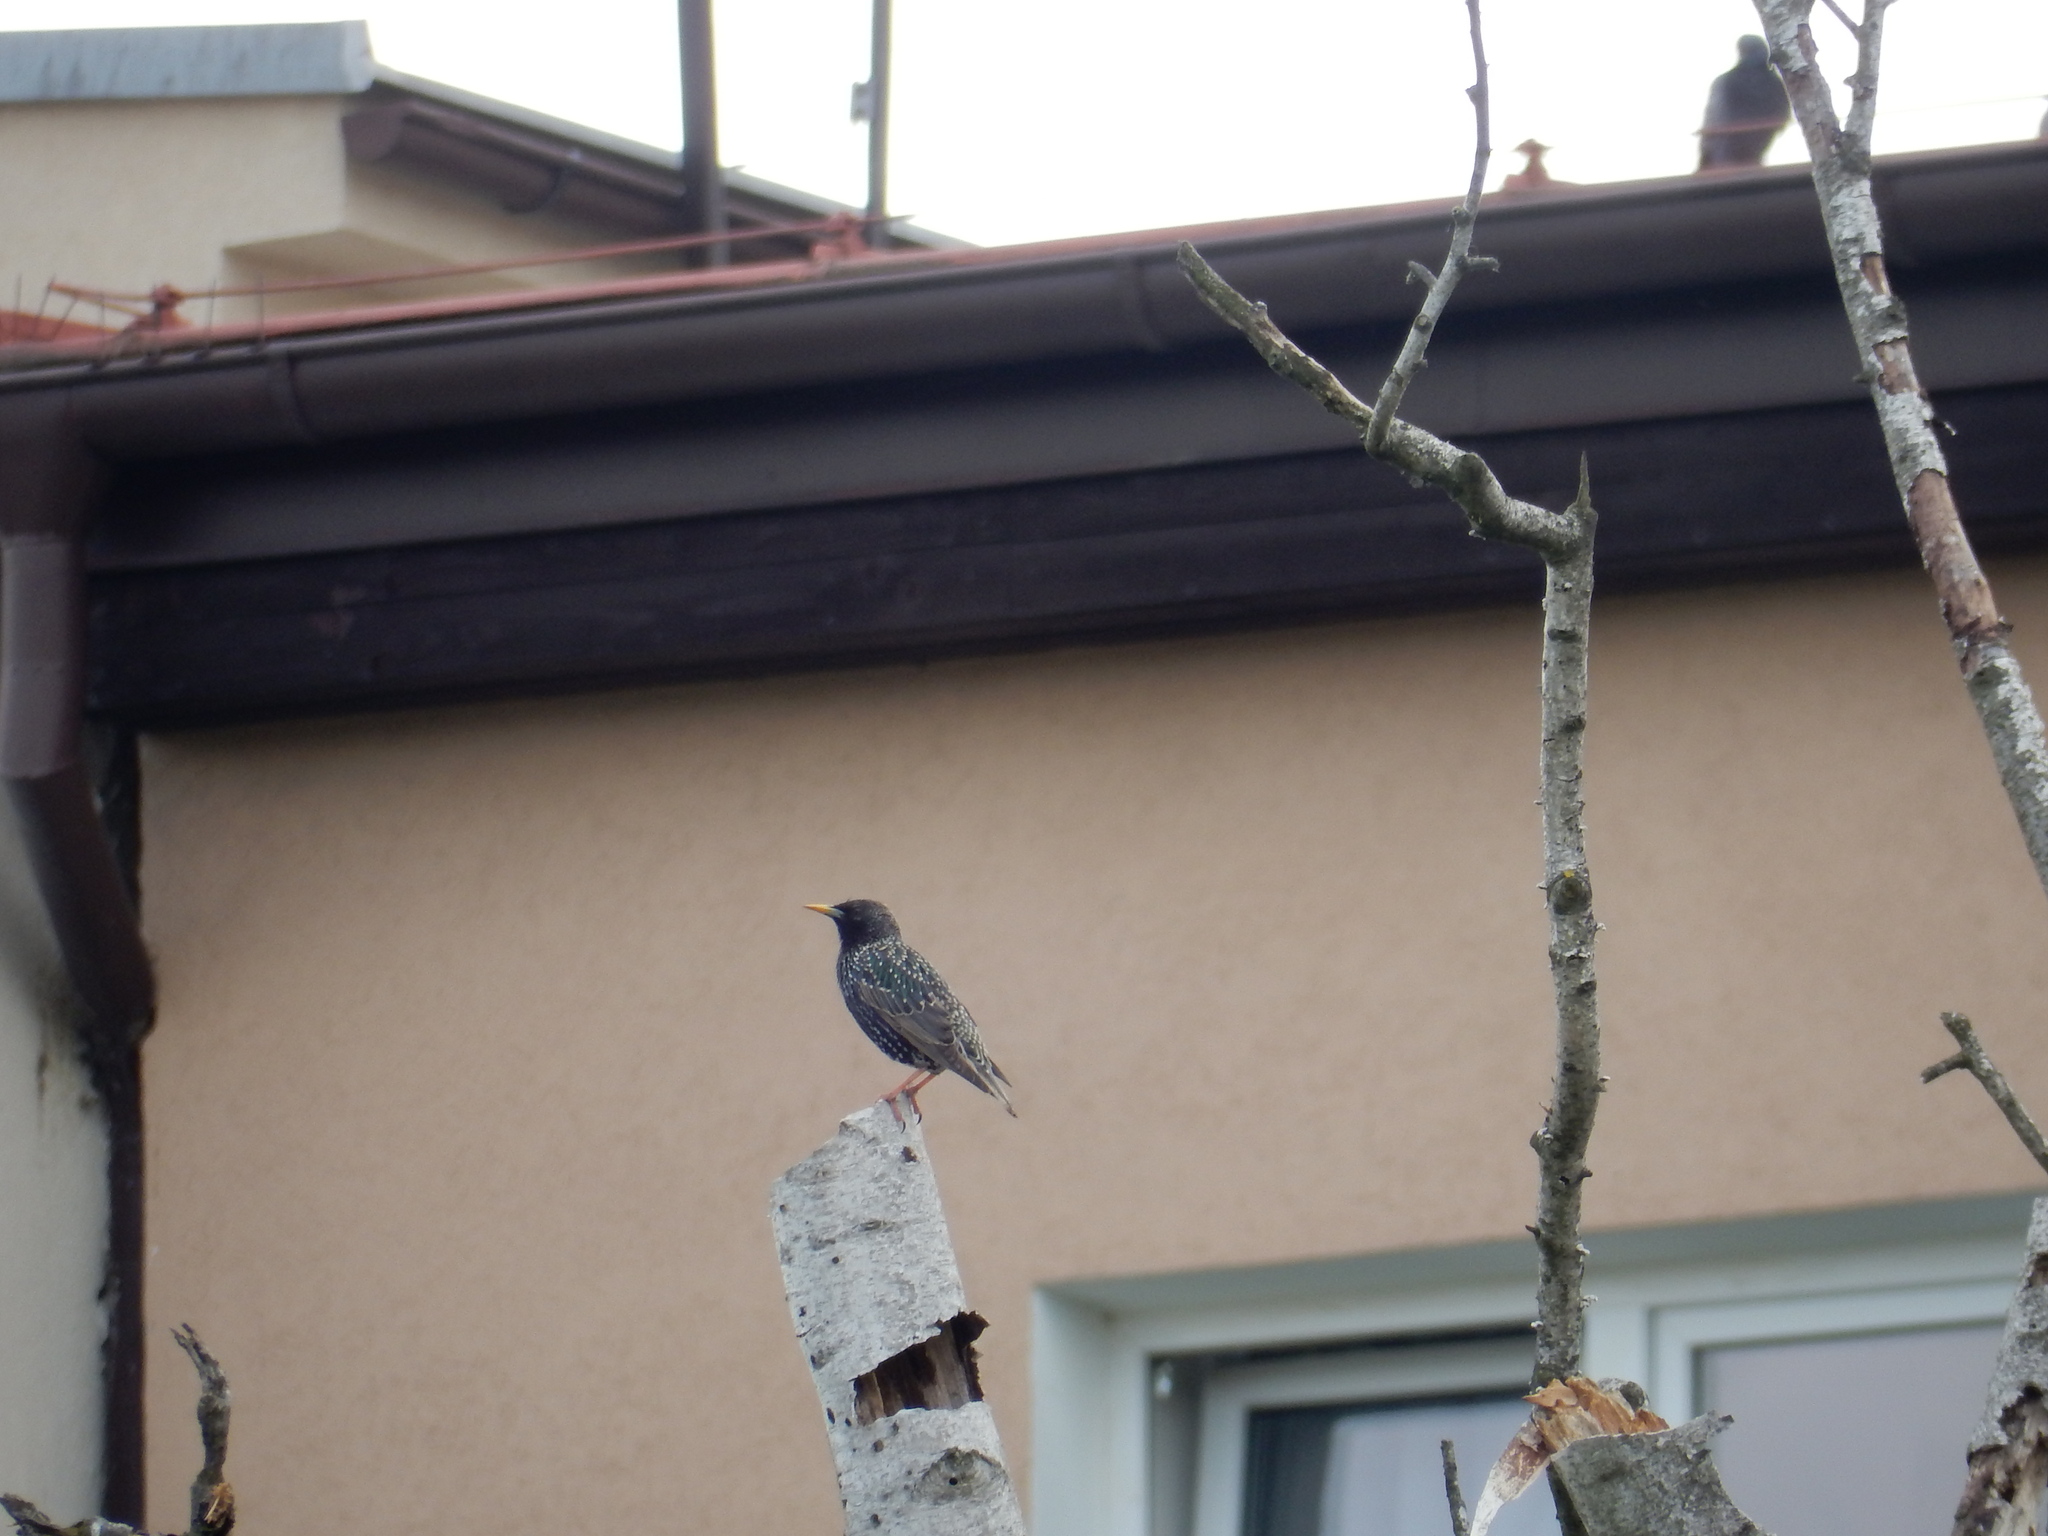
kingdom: Animalia
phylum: Chordata
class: Aves
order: Passeriformes
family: Sturnidae
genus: Sturnus
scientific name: Sturnus vulgaris
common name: Common starling
